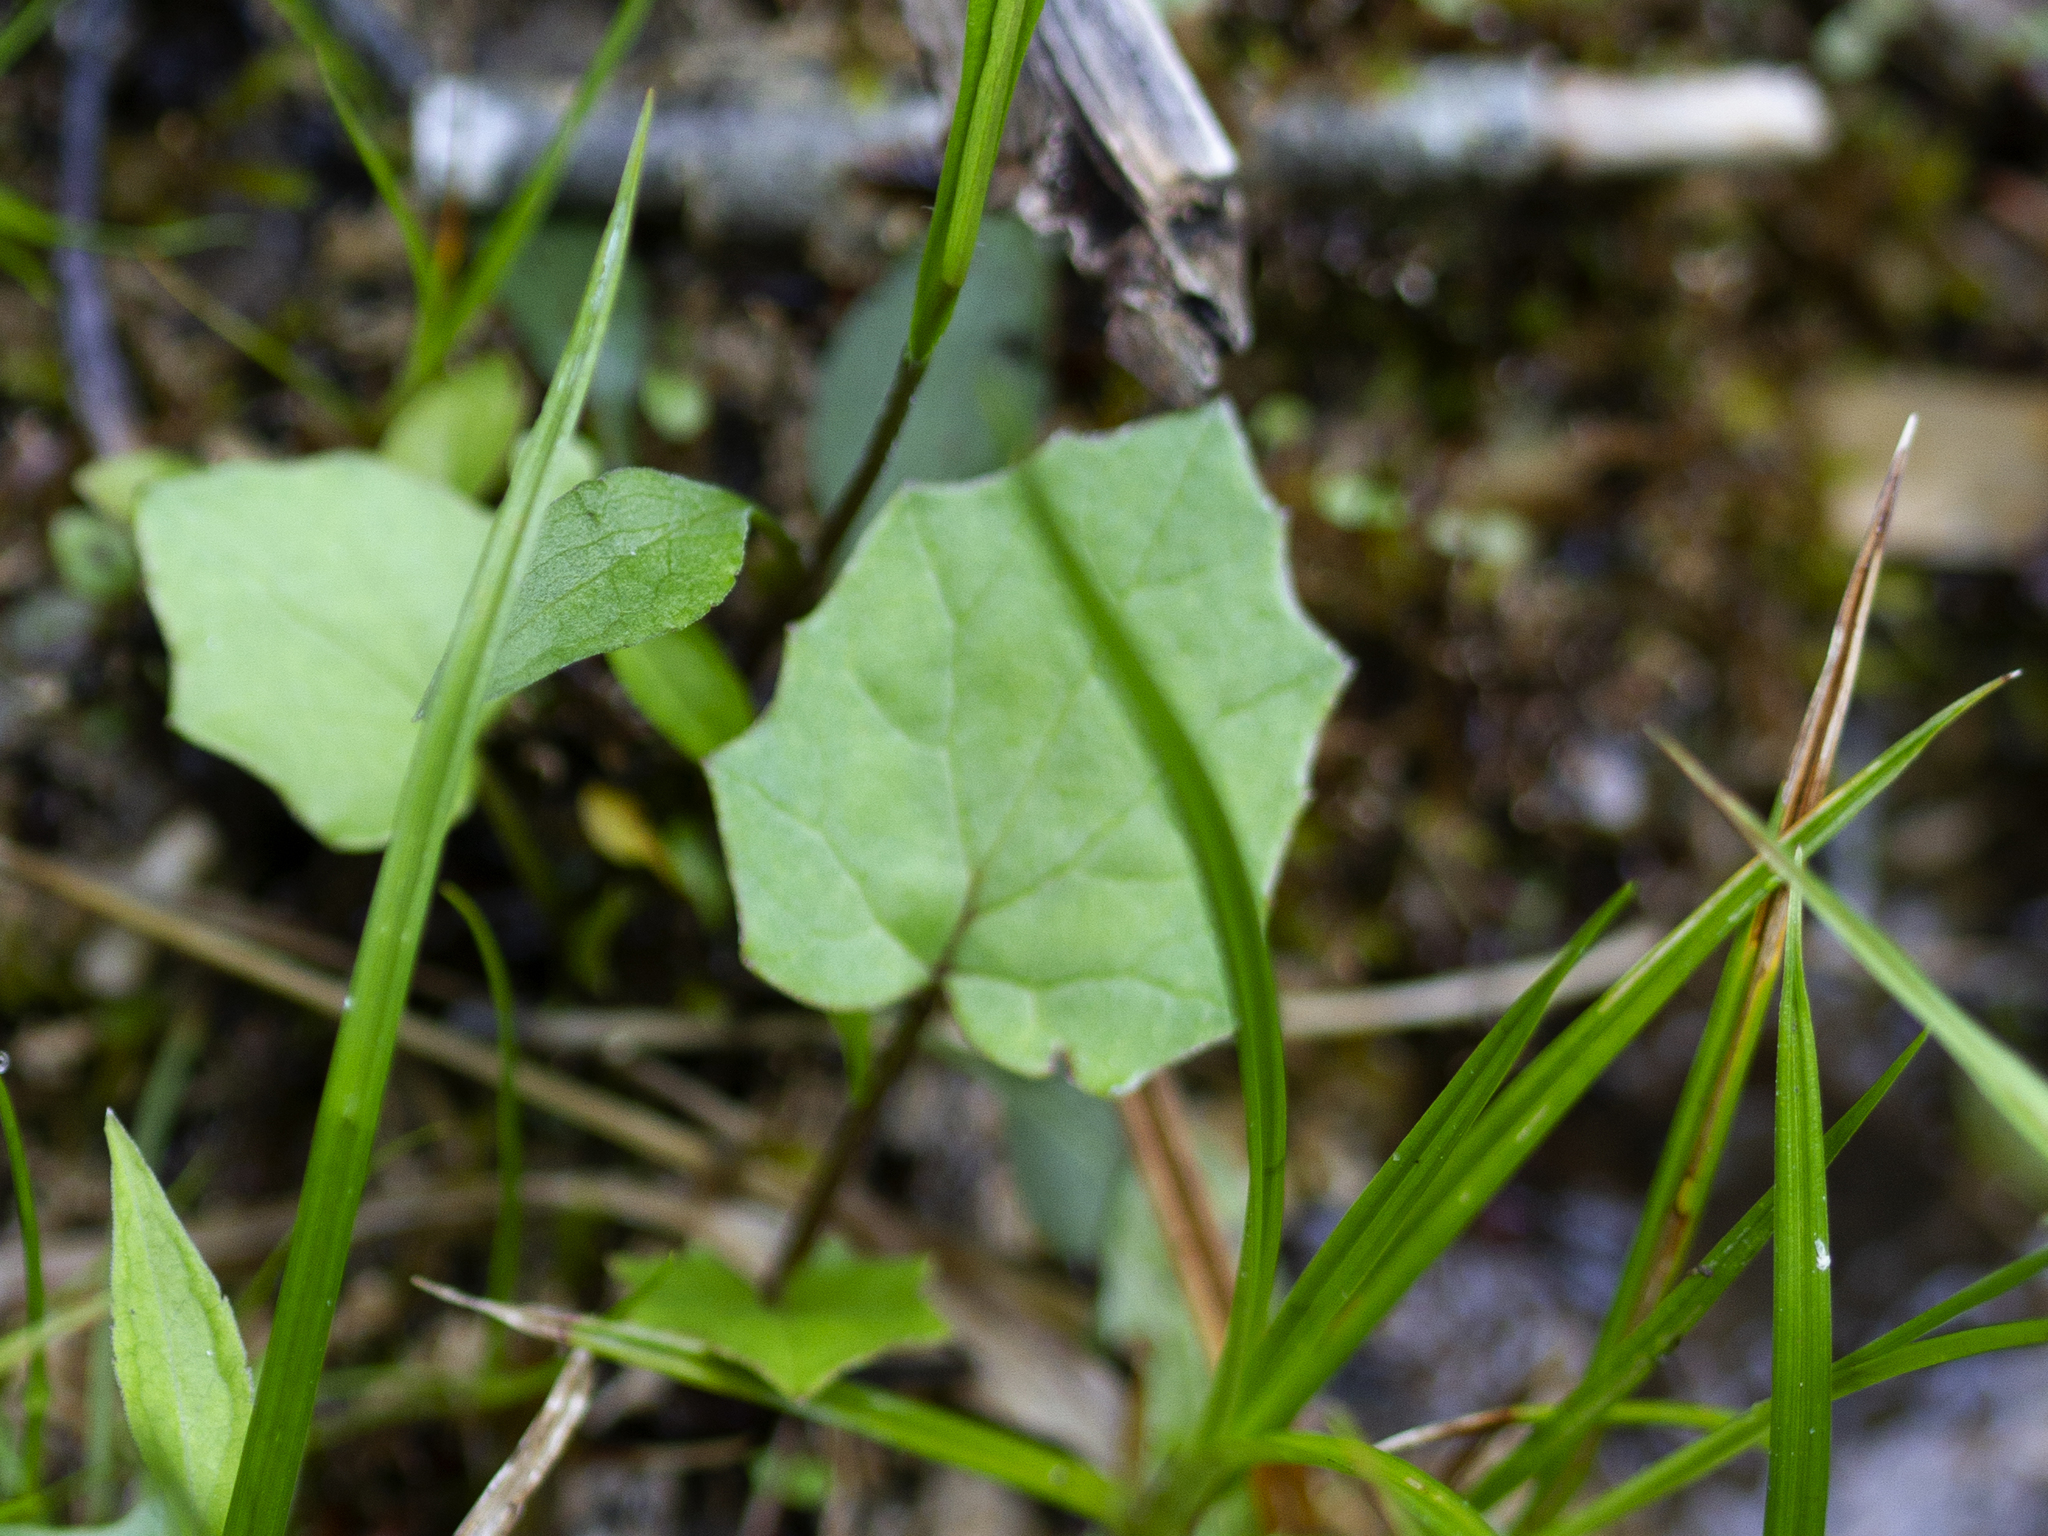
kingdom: Plantae
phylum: Tracheophyta
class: Magnoliopsida
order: Asterales
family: Asteraceae
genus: Tussilago
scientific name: Tussilago farfara
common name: Coltsfoot
